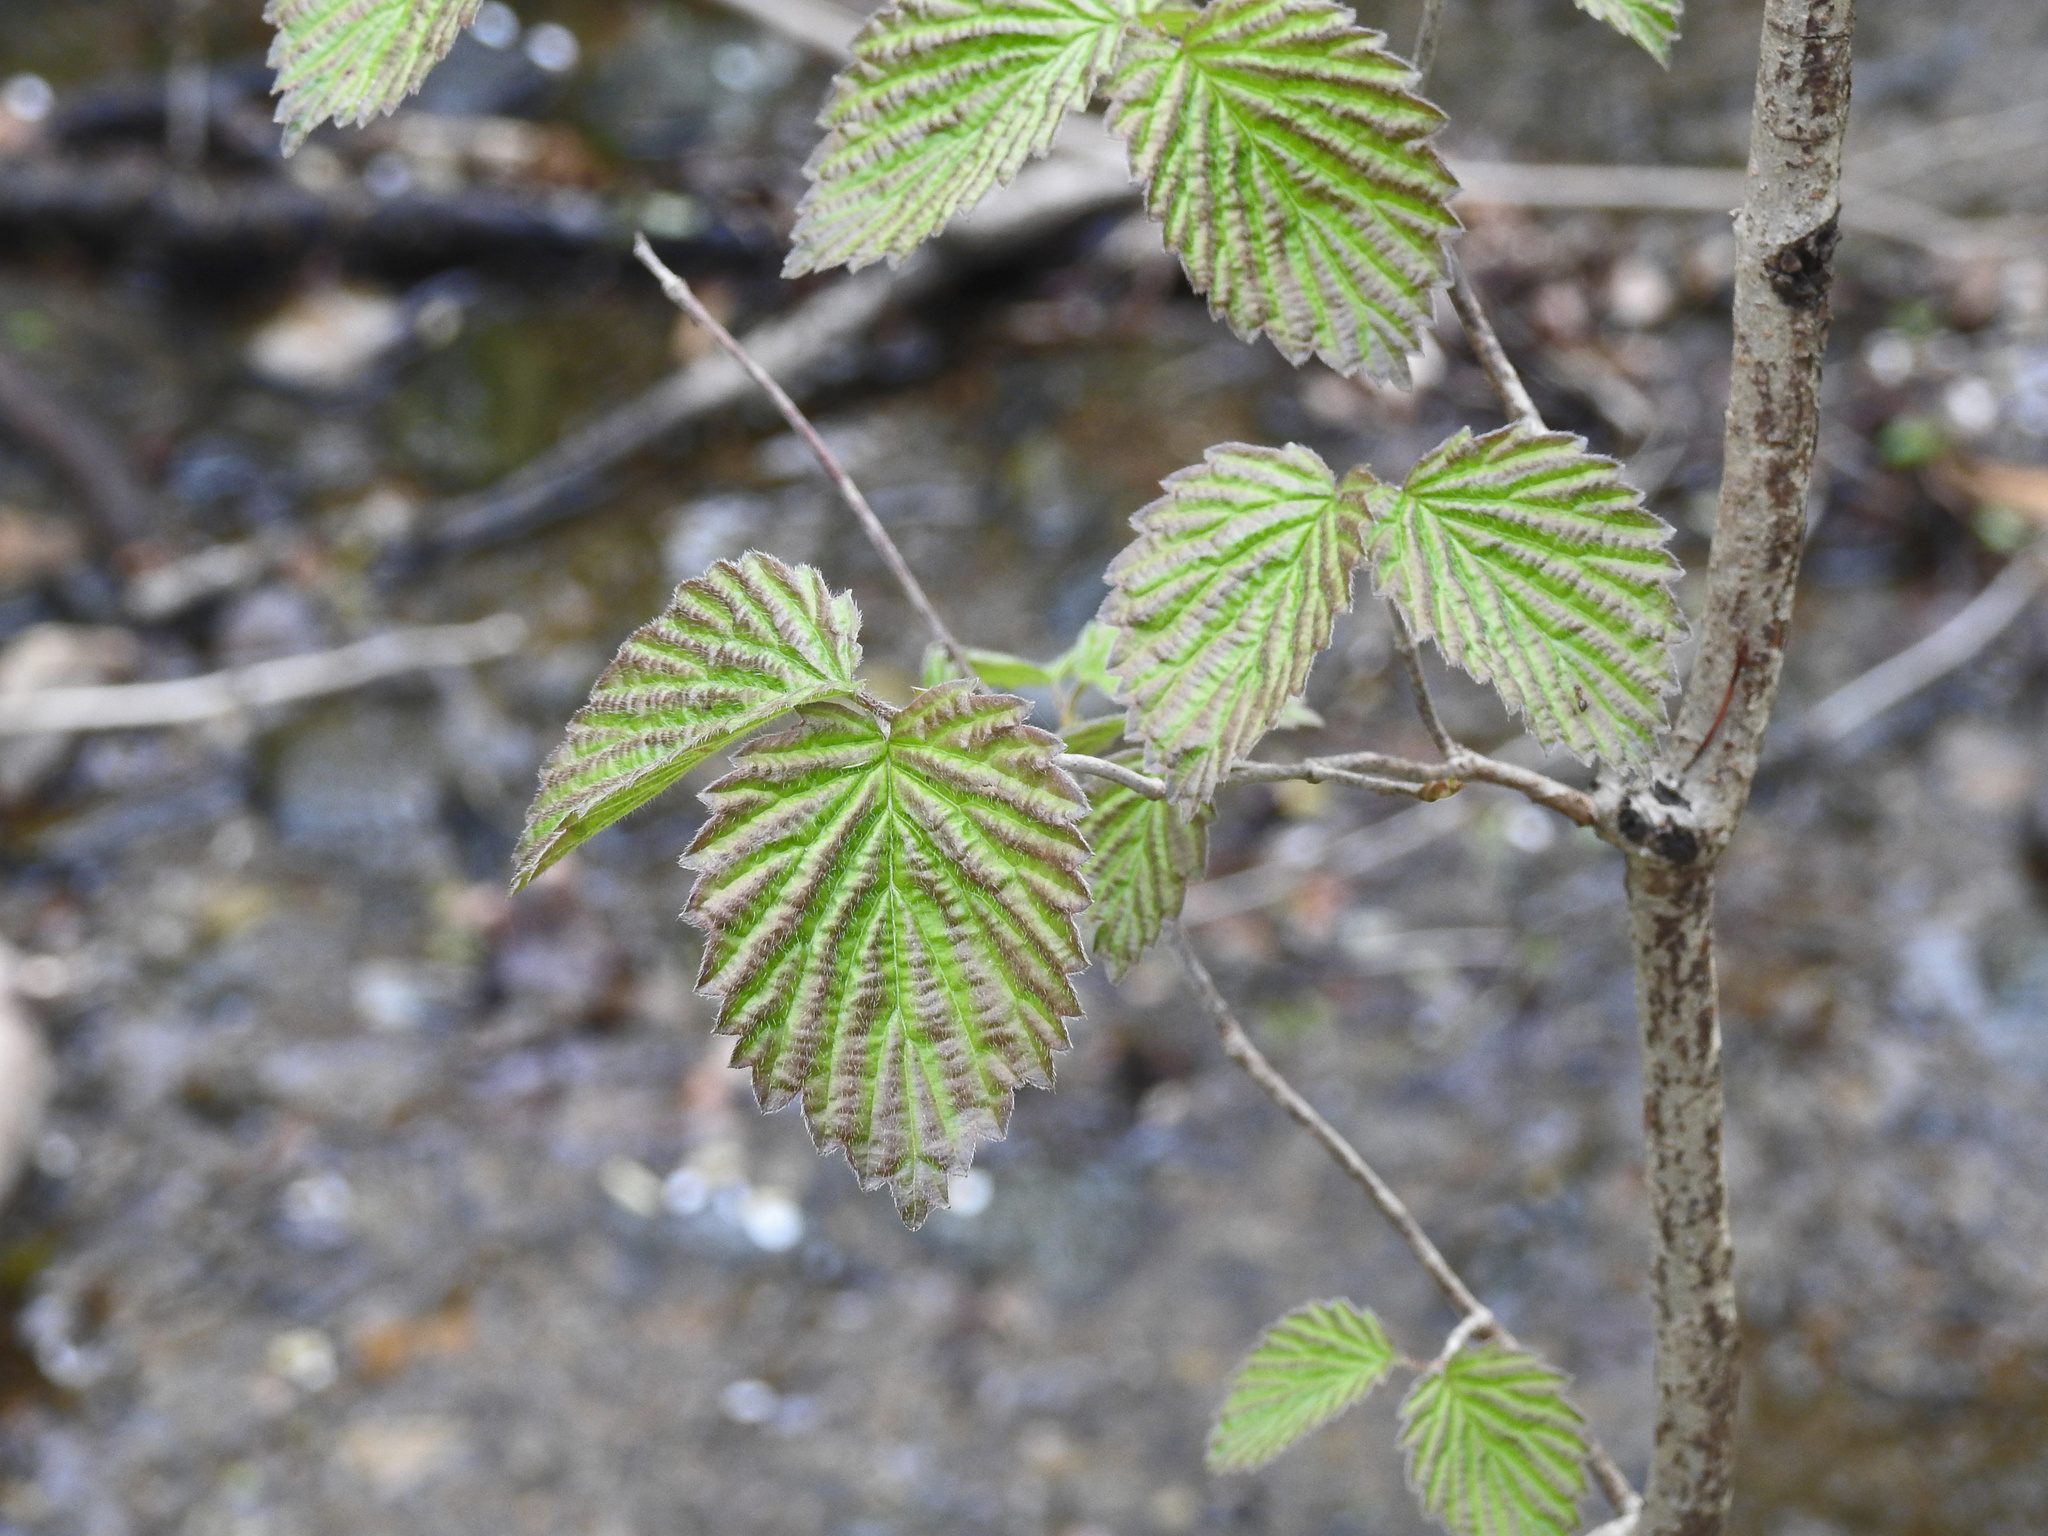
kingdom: Plantae
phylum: Tracheophyta
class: Magnoliopsida
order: Dipsacales
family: Viburnaceae
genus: Viburnum
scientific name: Viburnum dentatum
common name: Arrow-wood
